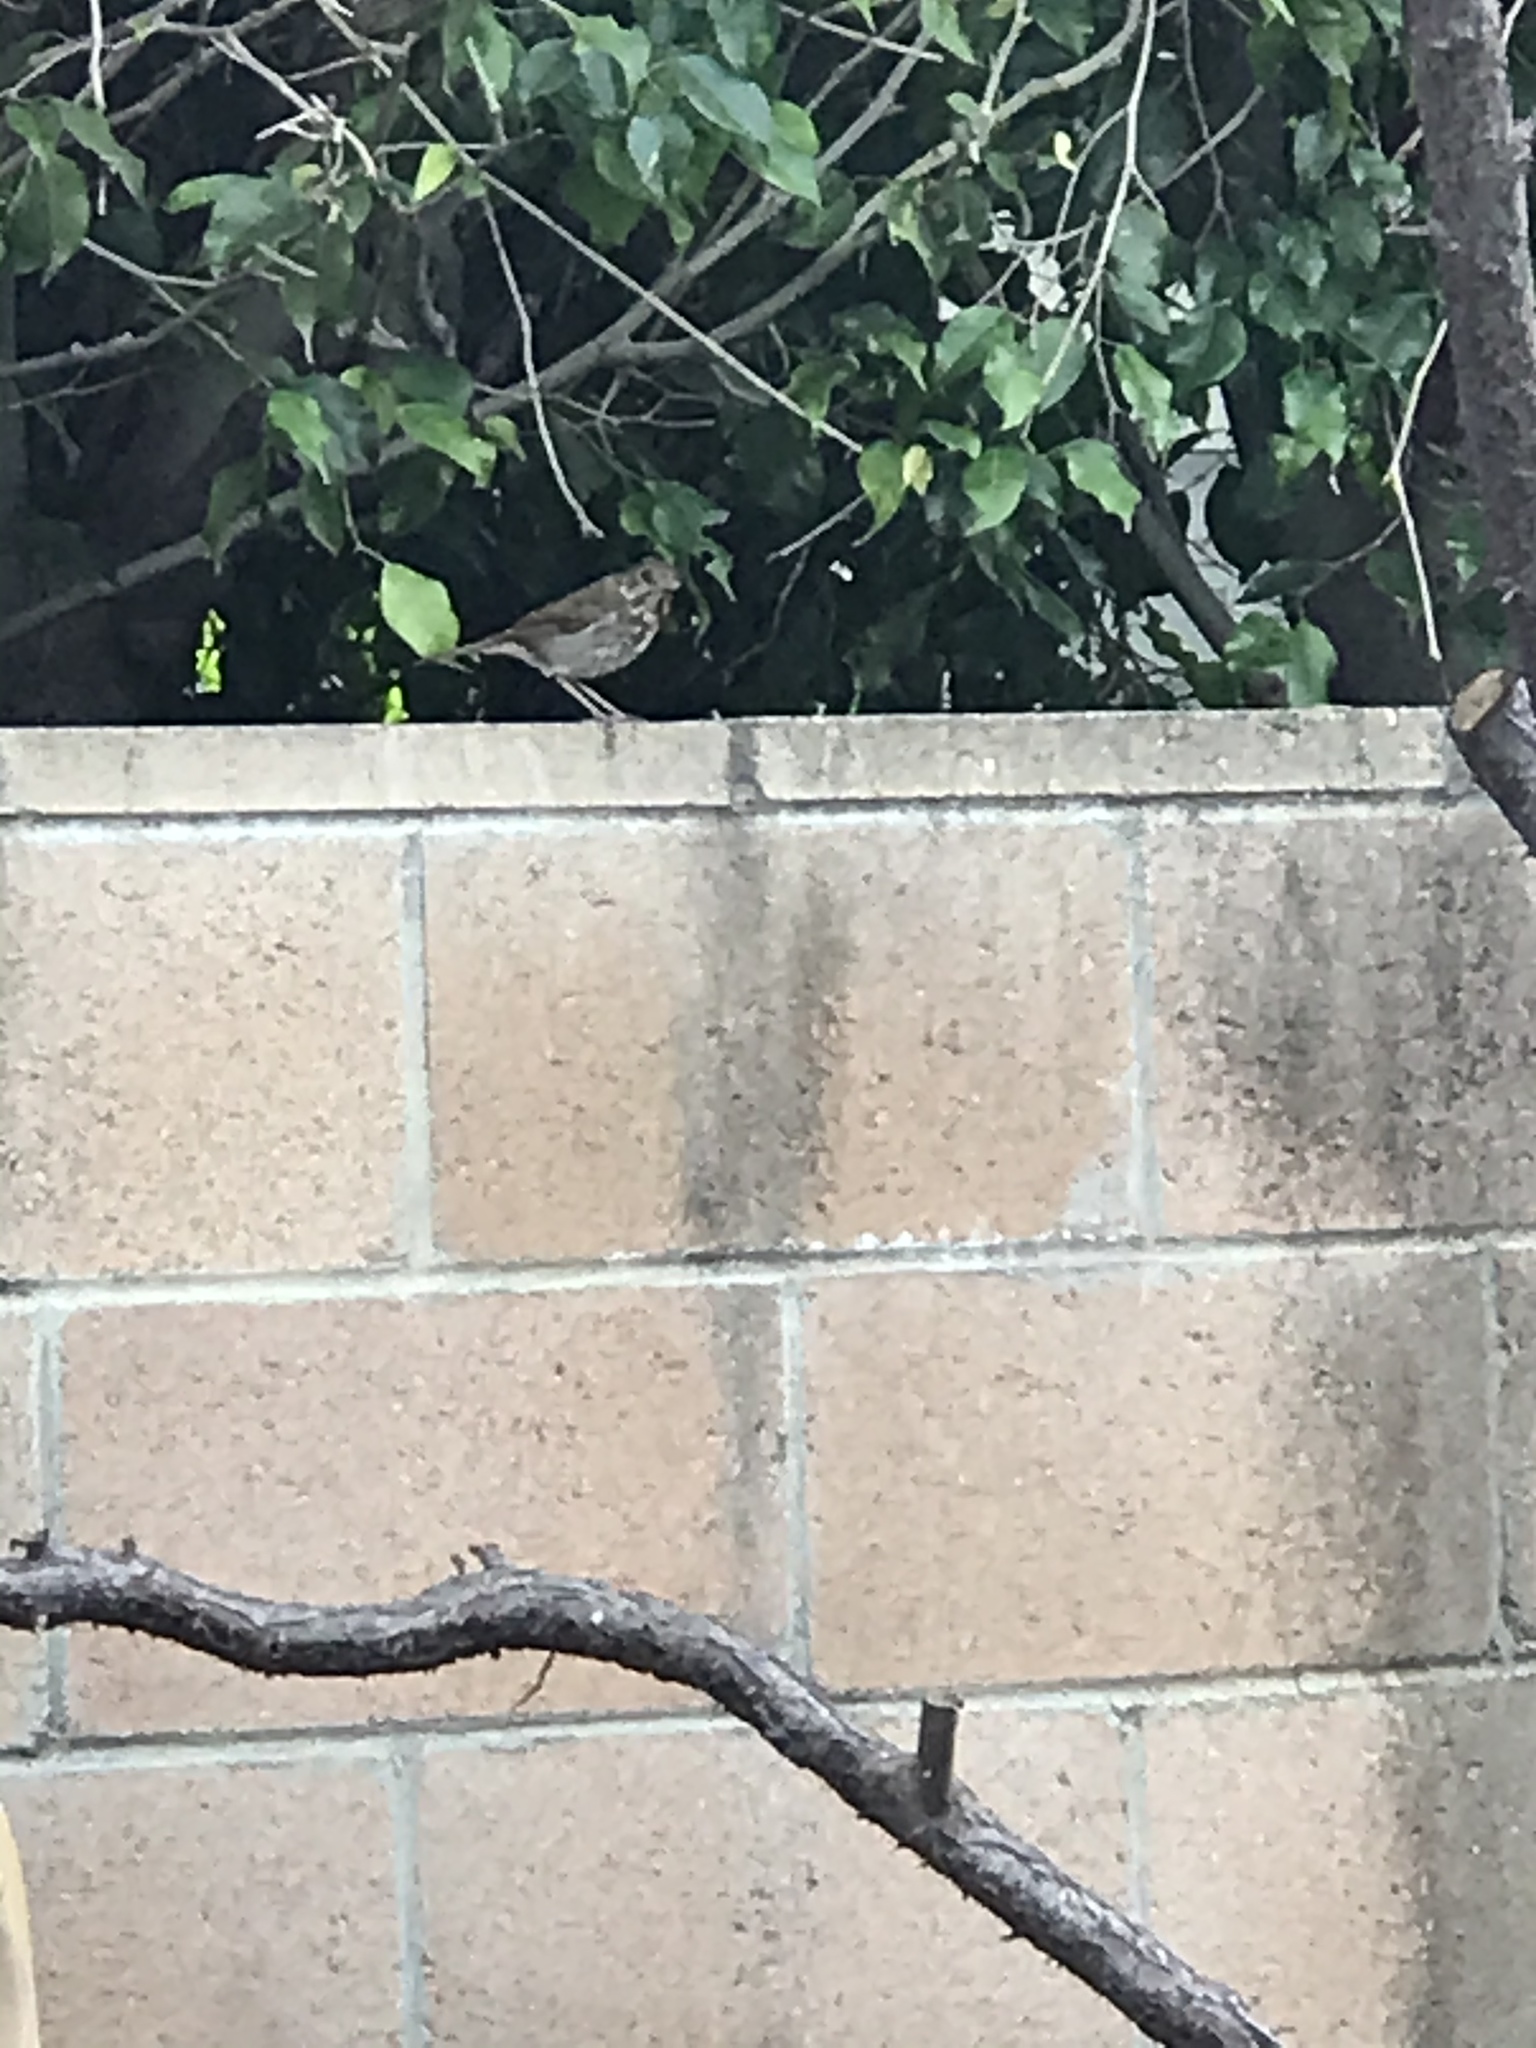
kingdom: Animalia
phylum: Chordata
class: Aves
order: Passeriformes
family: Turdidae
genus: Catharus
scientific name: Catharus guttatus
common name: Hermit thrush
